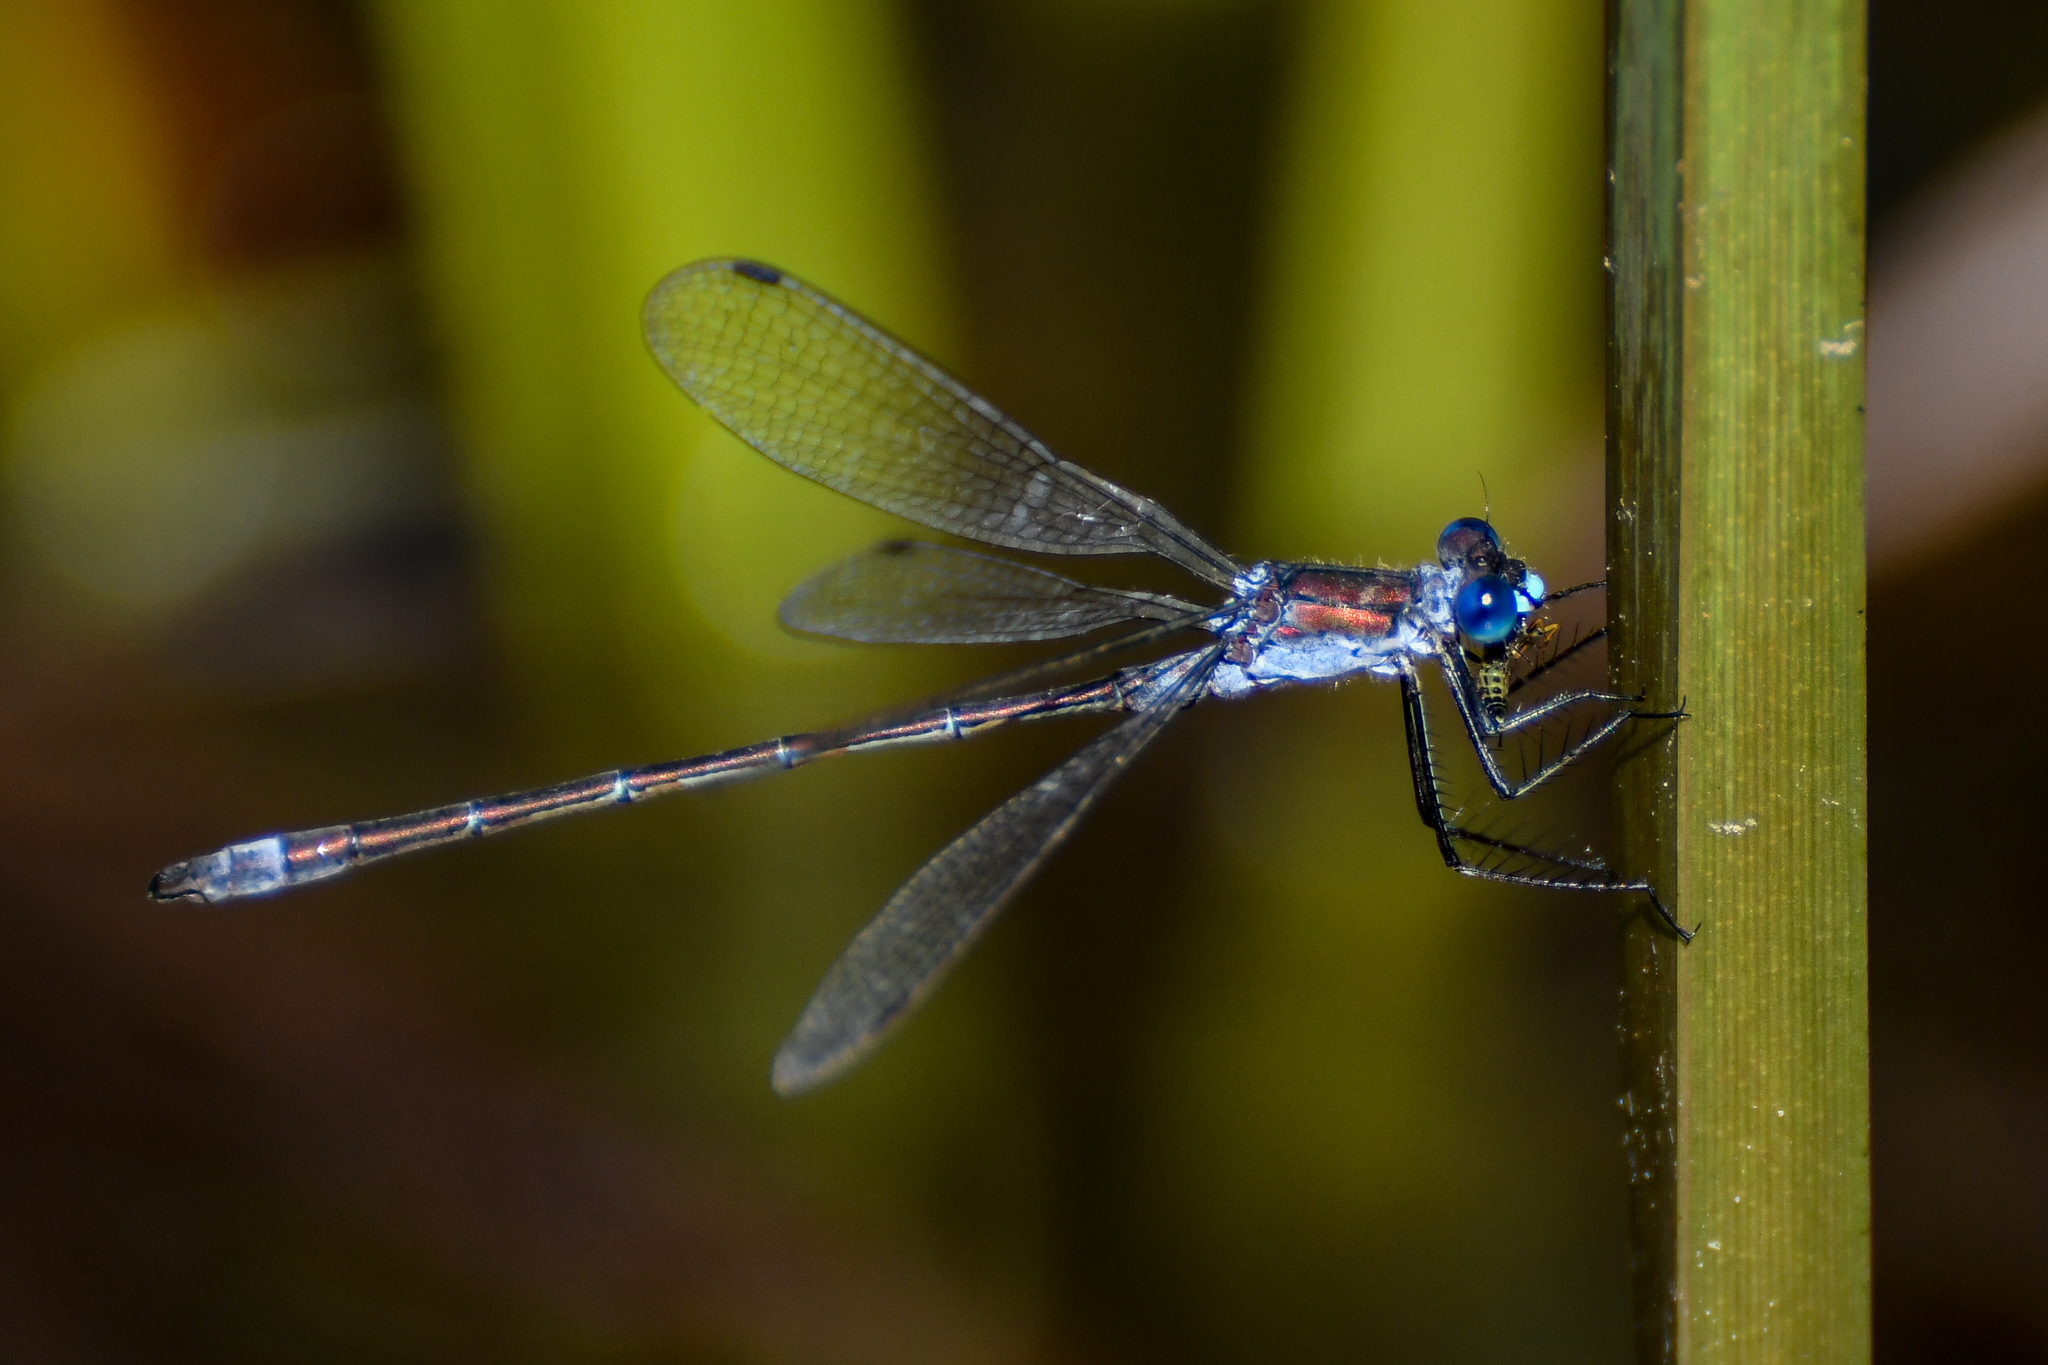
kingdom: Animalia
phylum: Arthropoda
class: Insecta
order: Odonata
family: Lestidae
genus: Lestes
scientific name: Lestes sponsa
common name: Common spreadwing
